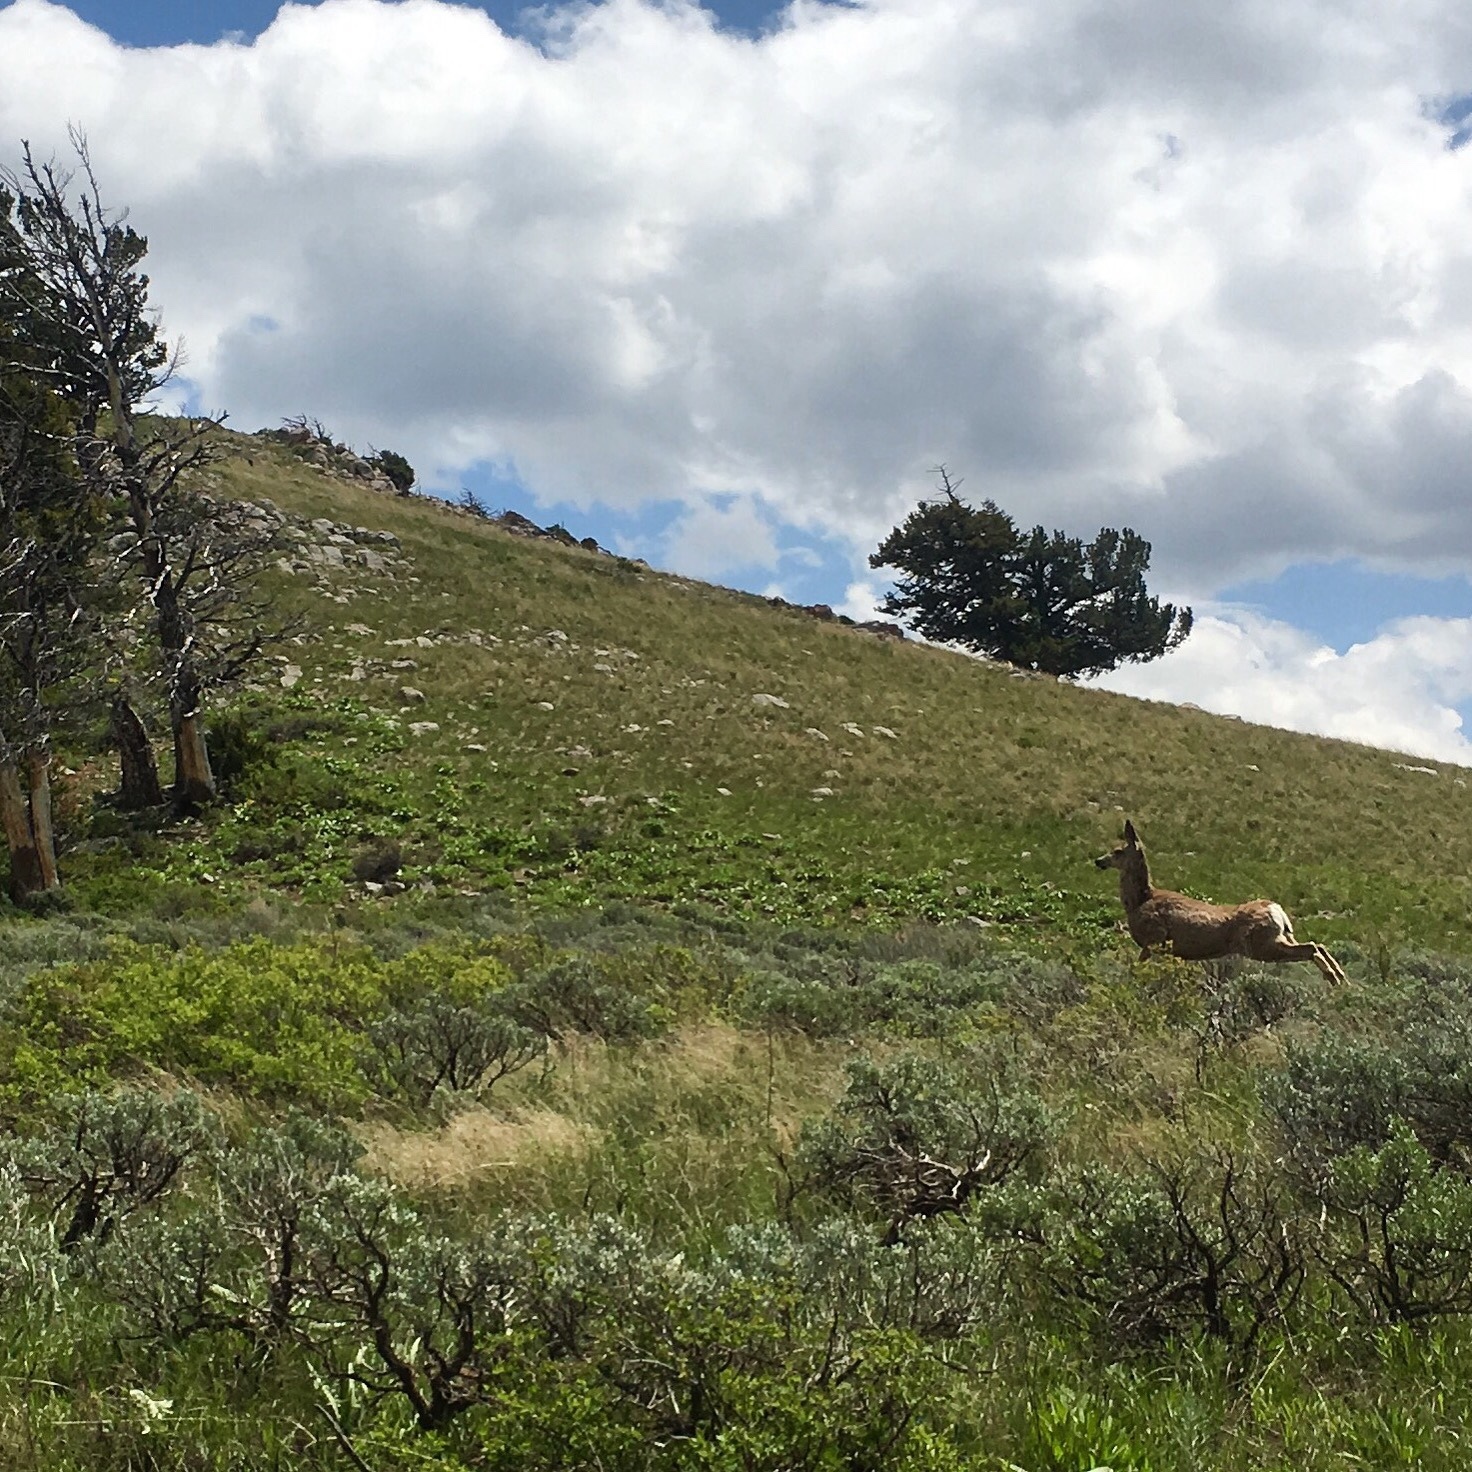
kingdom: Animalia
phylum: Chordata
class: Mammalia
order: Artiodactyla
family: Cervidae
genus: Odocoileus
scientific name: Odocoileus hemionus
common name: Mule deer
